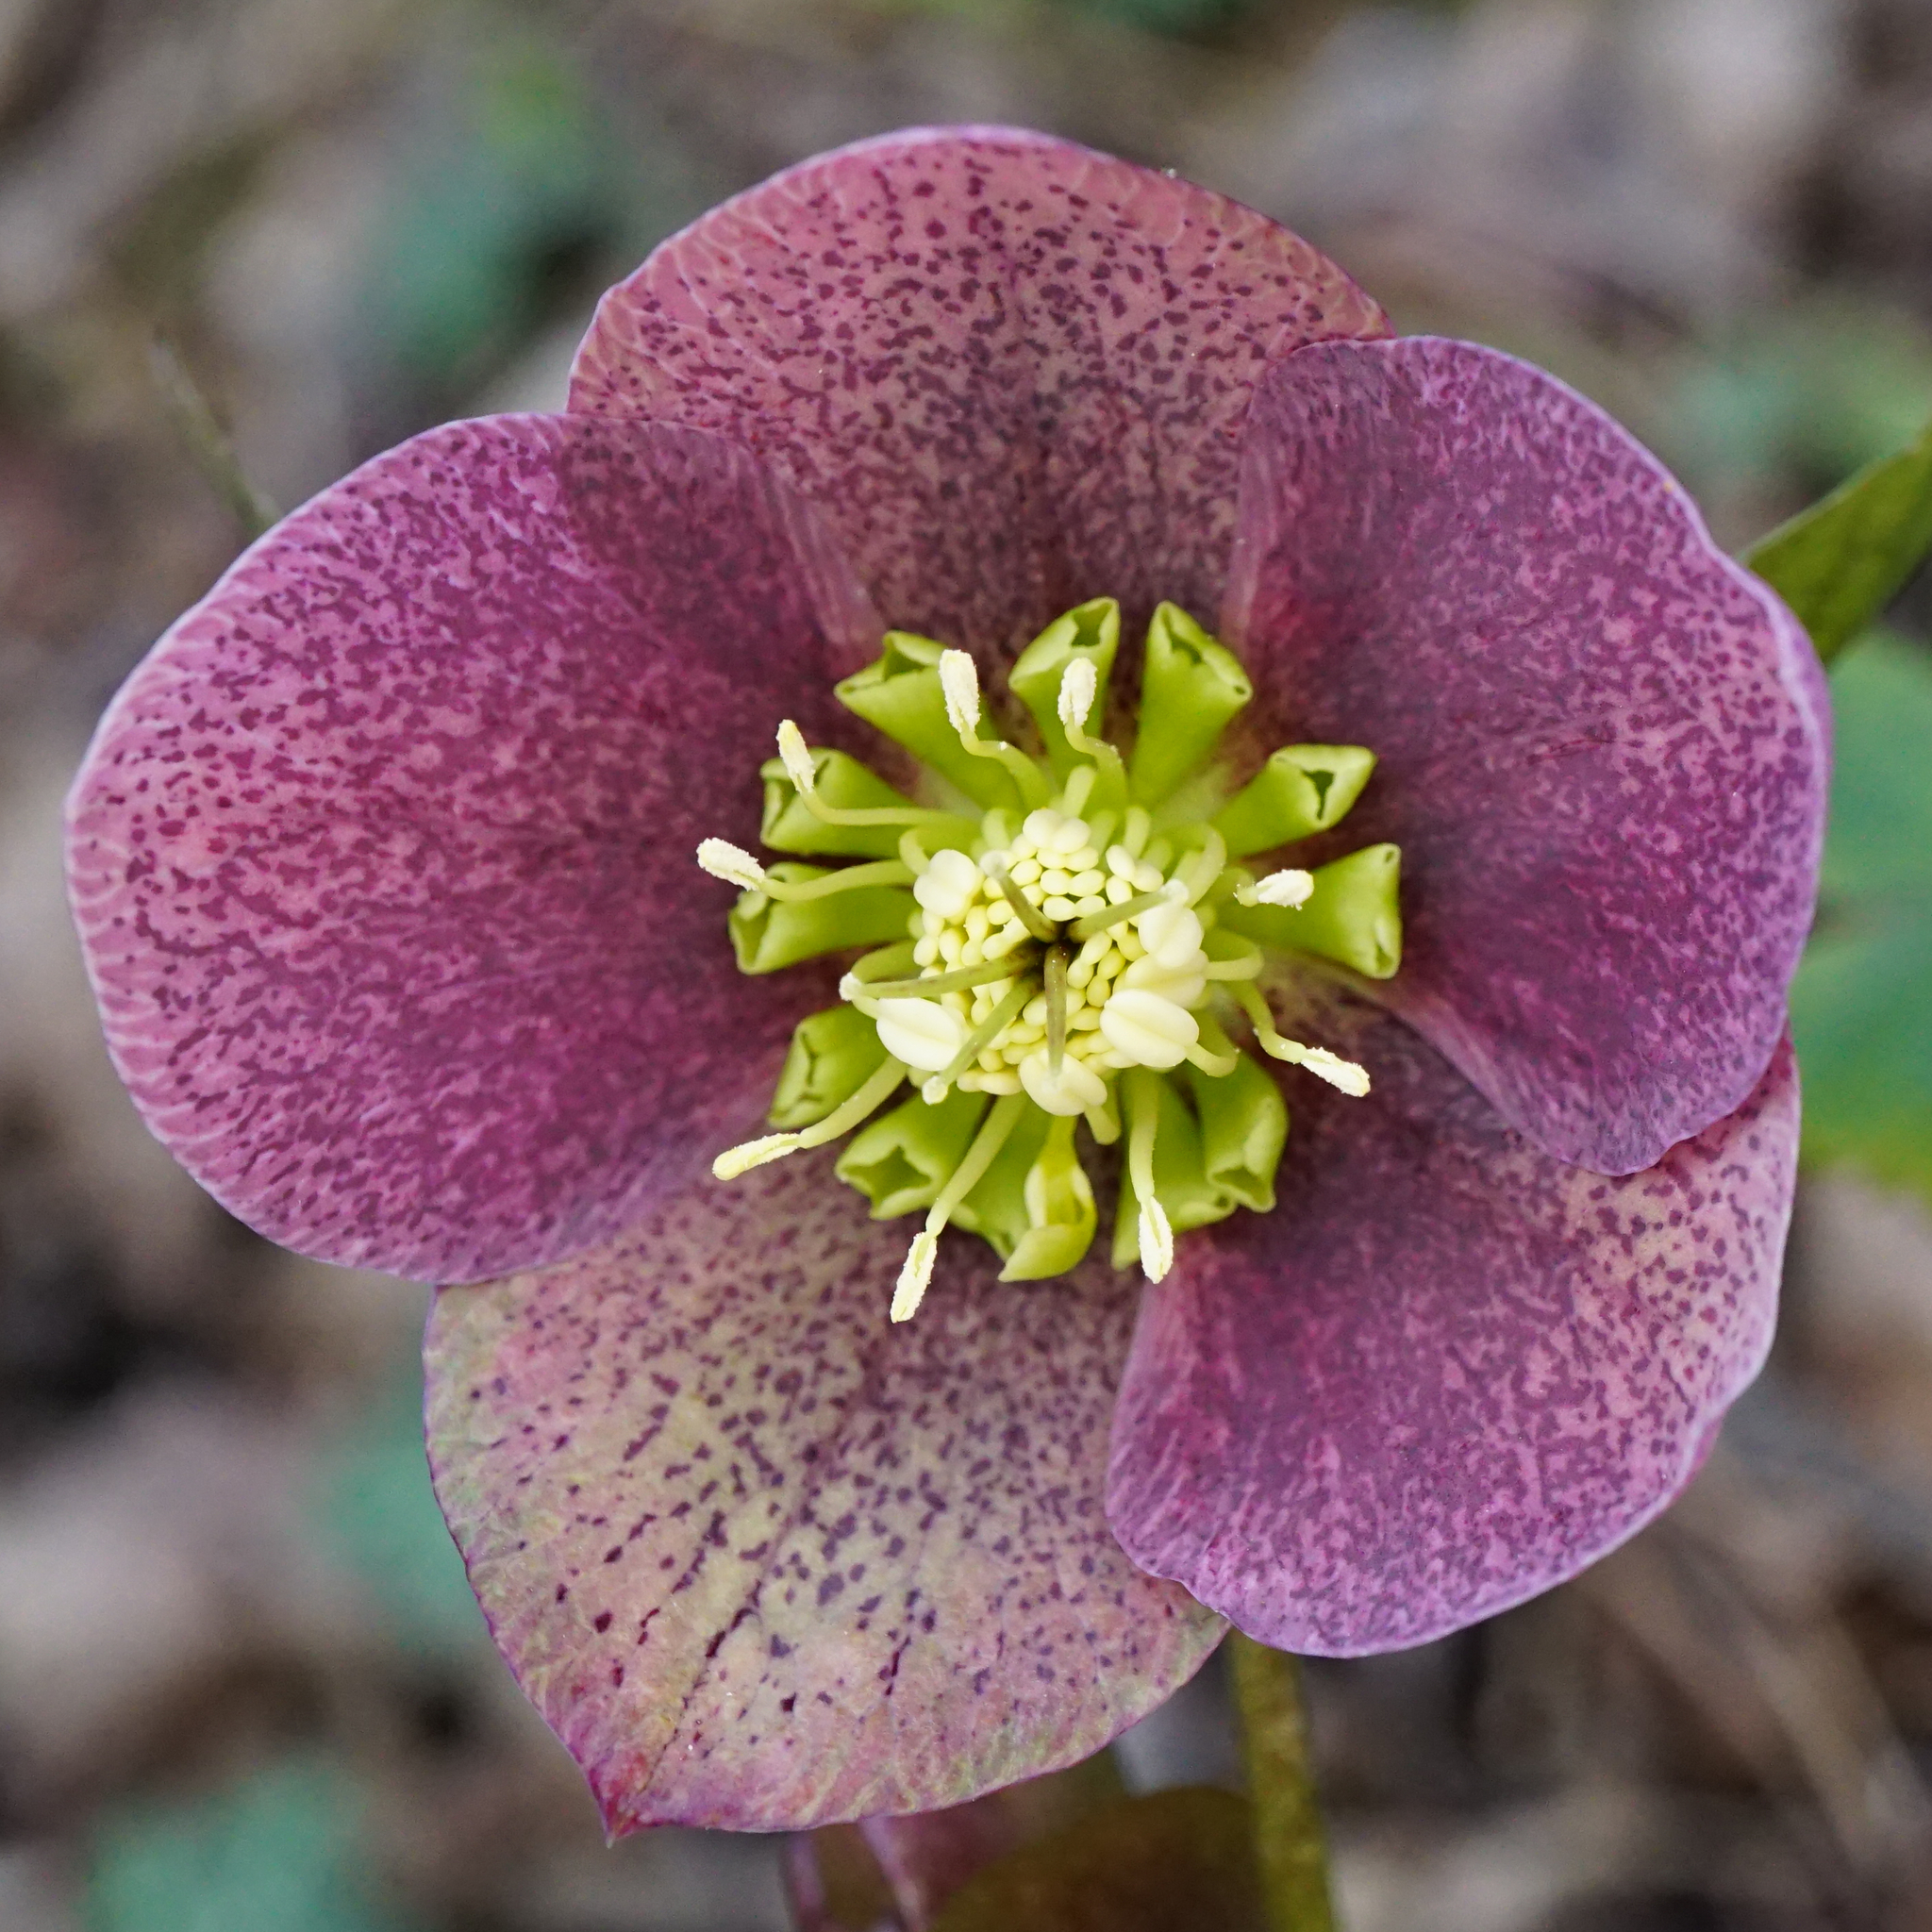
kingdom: Plantae
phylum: Tracheophyta
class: Magnoliopsida
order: Ranunculales
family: Ranunculaceae
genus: Helleborus
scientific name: Helleborus hybridus
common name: Hybrid lenten-rose
